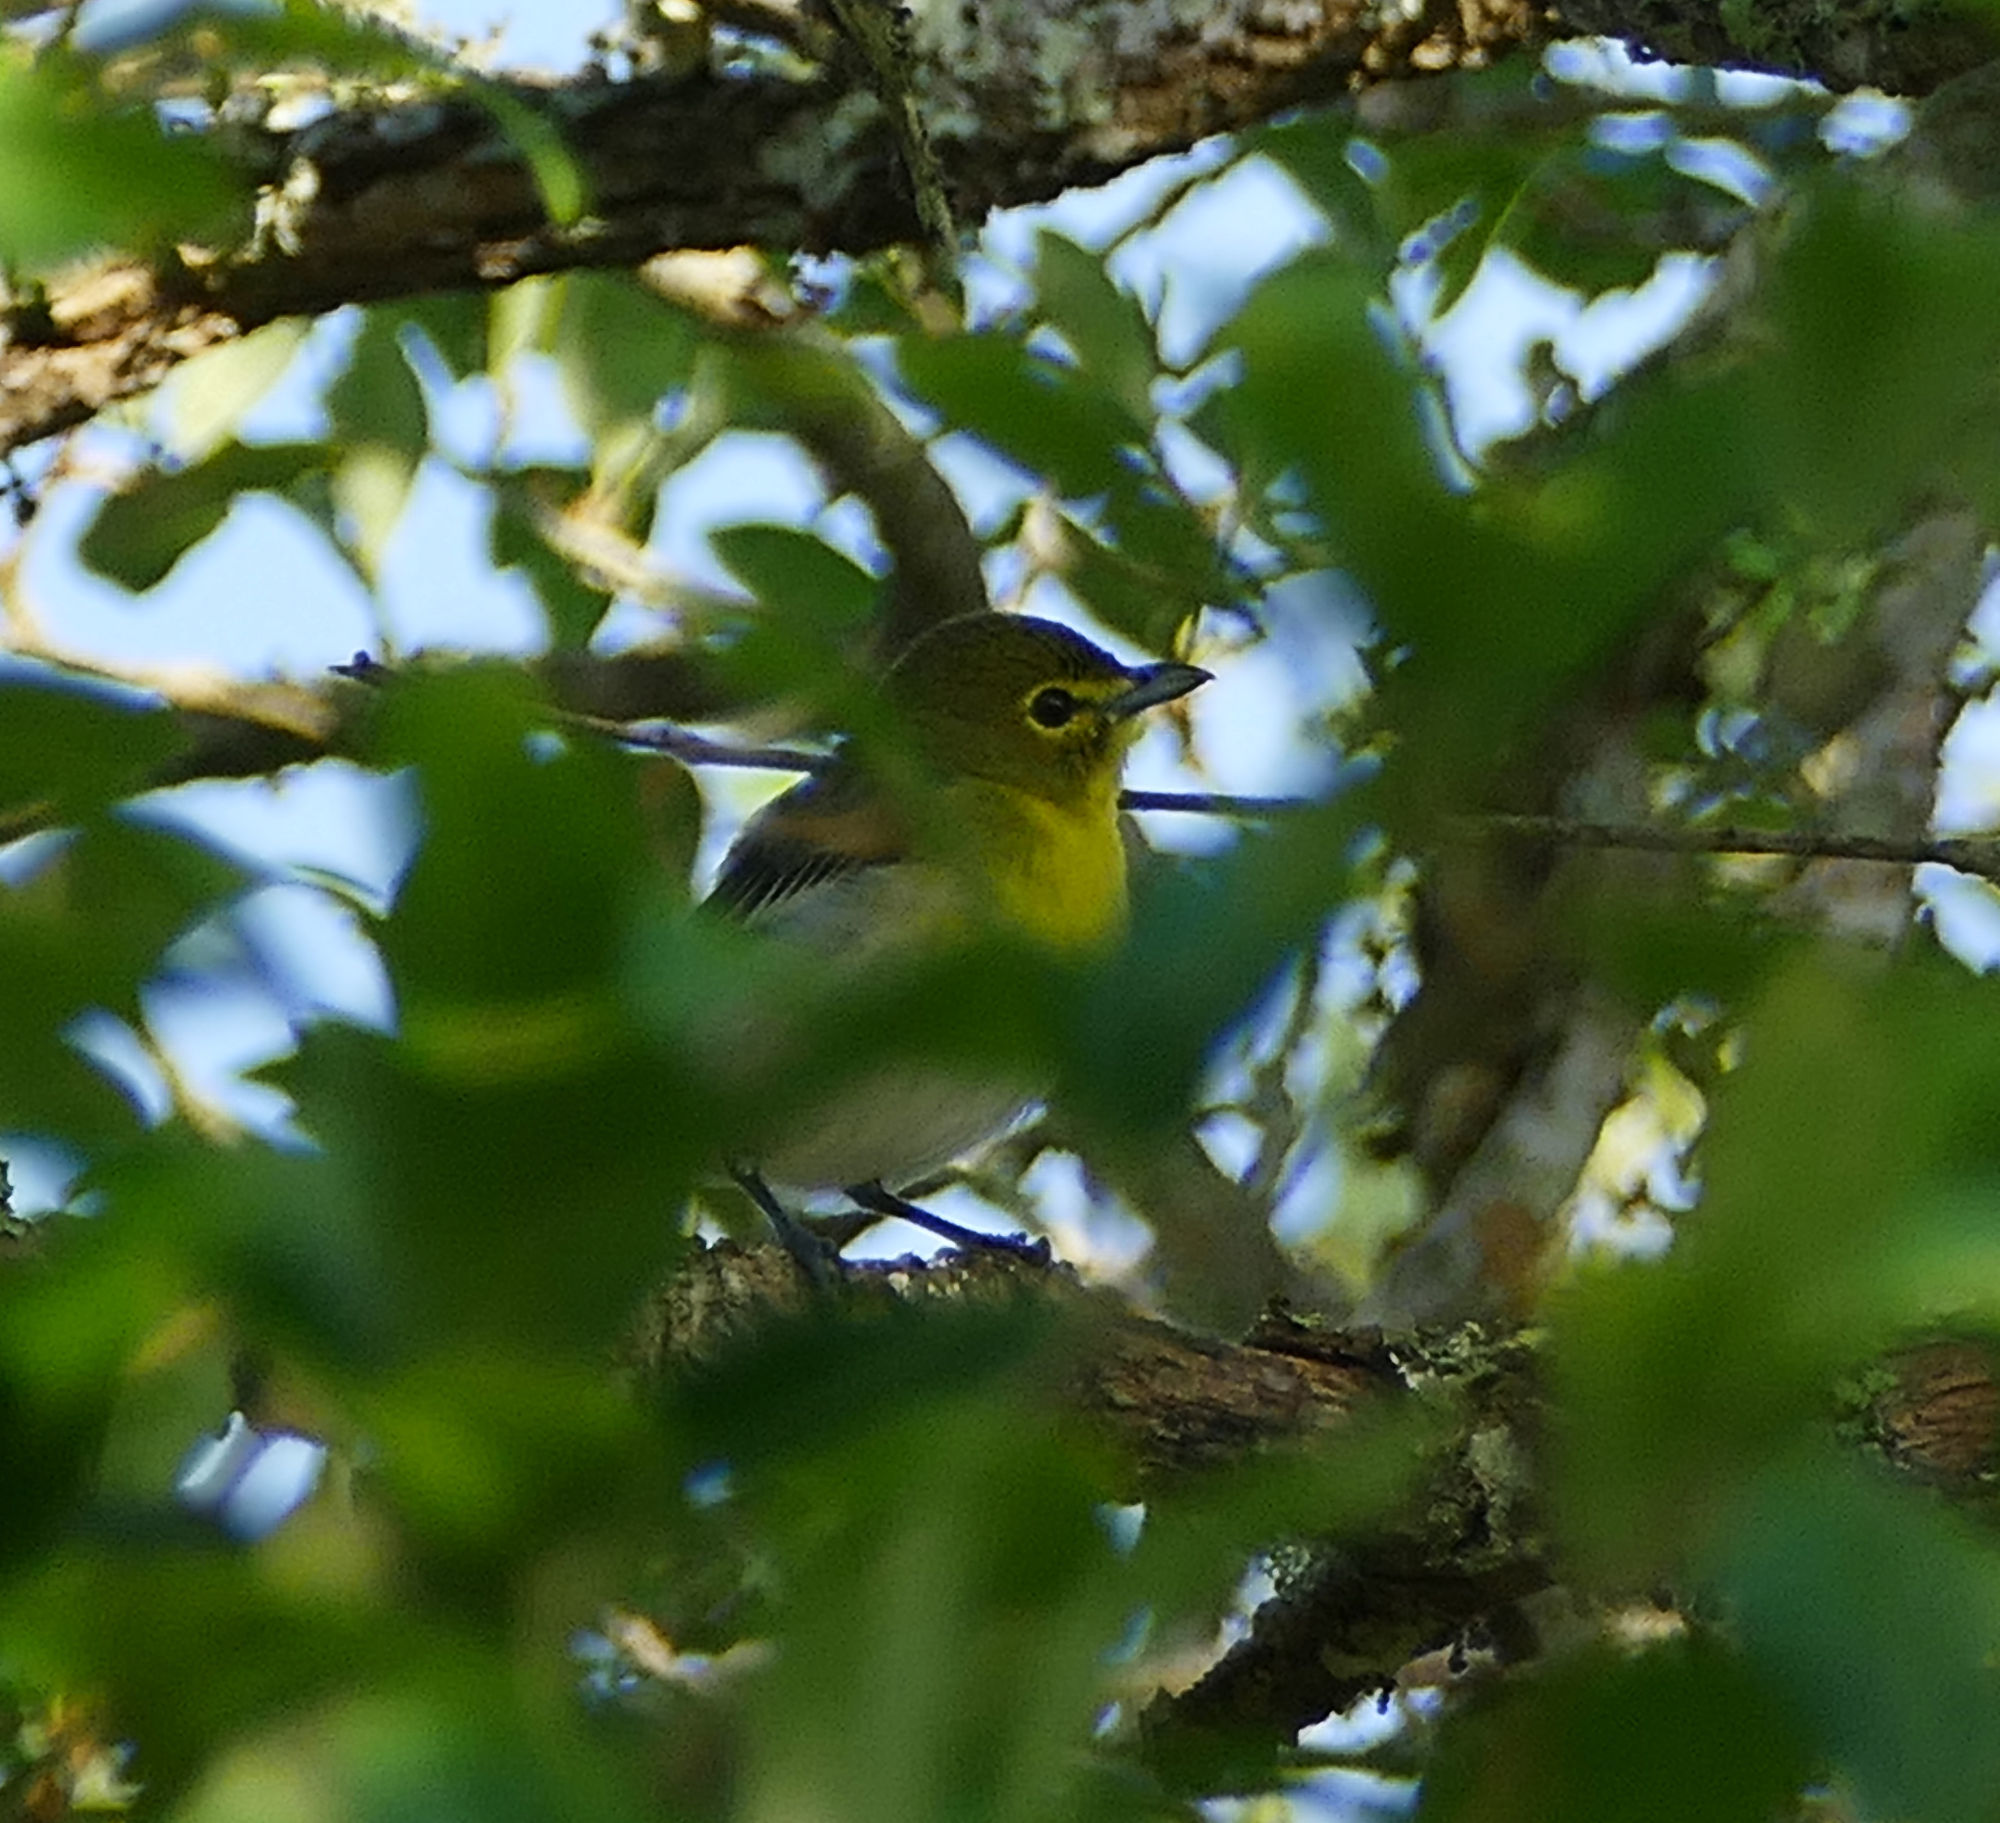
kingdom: Animalia
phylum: Chordata
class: Aves
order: Passeriformes
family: Vireonidae
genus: Vireo
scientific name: Vireo flavifrons
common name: Yellow-throated vireo
